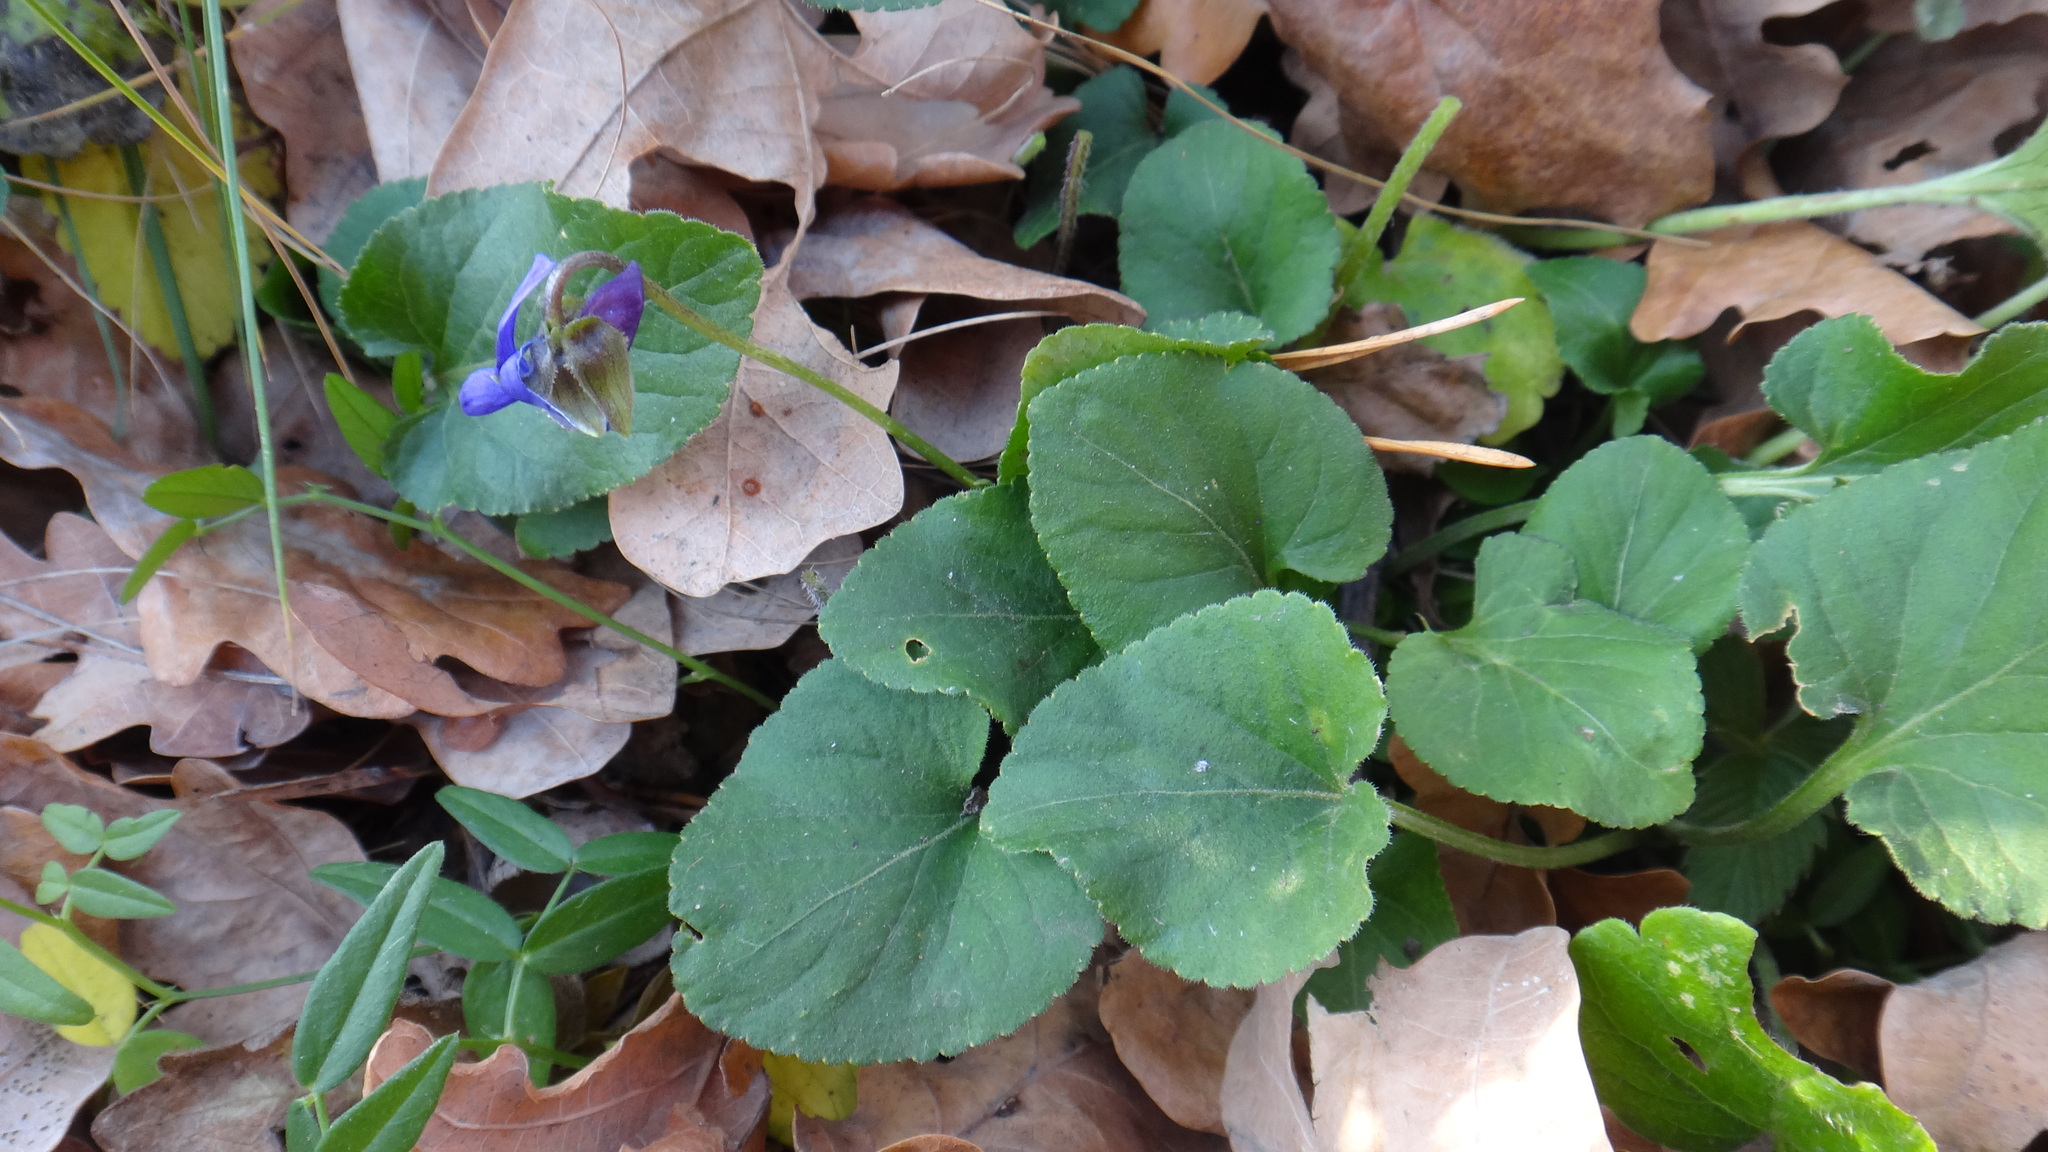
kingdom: Plantae
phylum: Tracheophyta
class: Magnoliopsida
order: Malpighiales
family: Violaceae
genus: Viola
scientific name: Viola odorata
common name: Sweet violet
